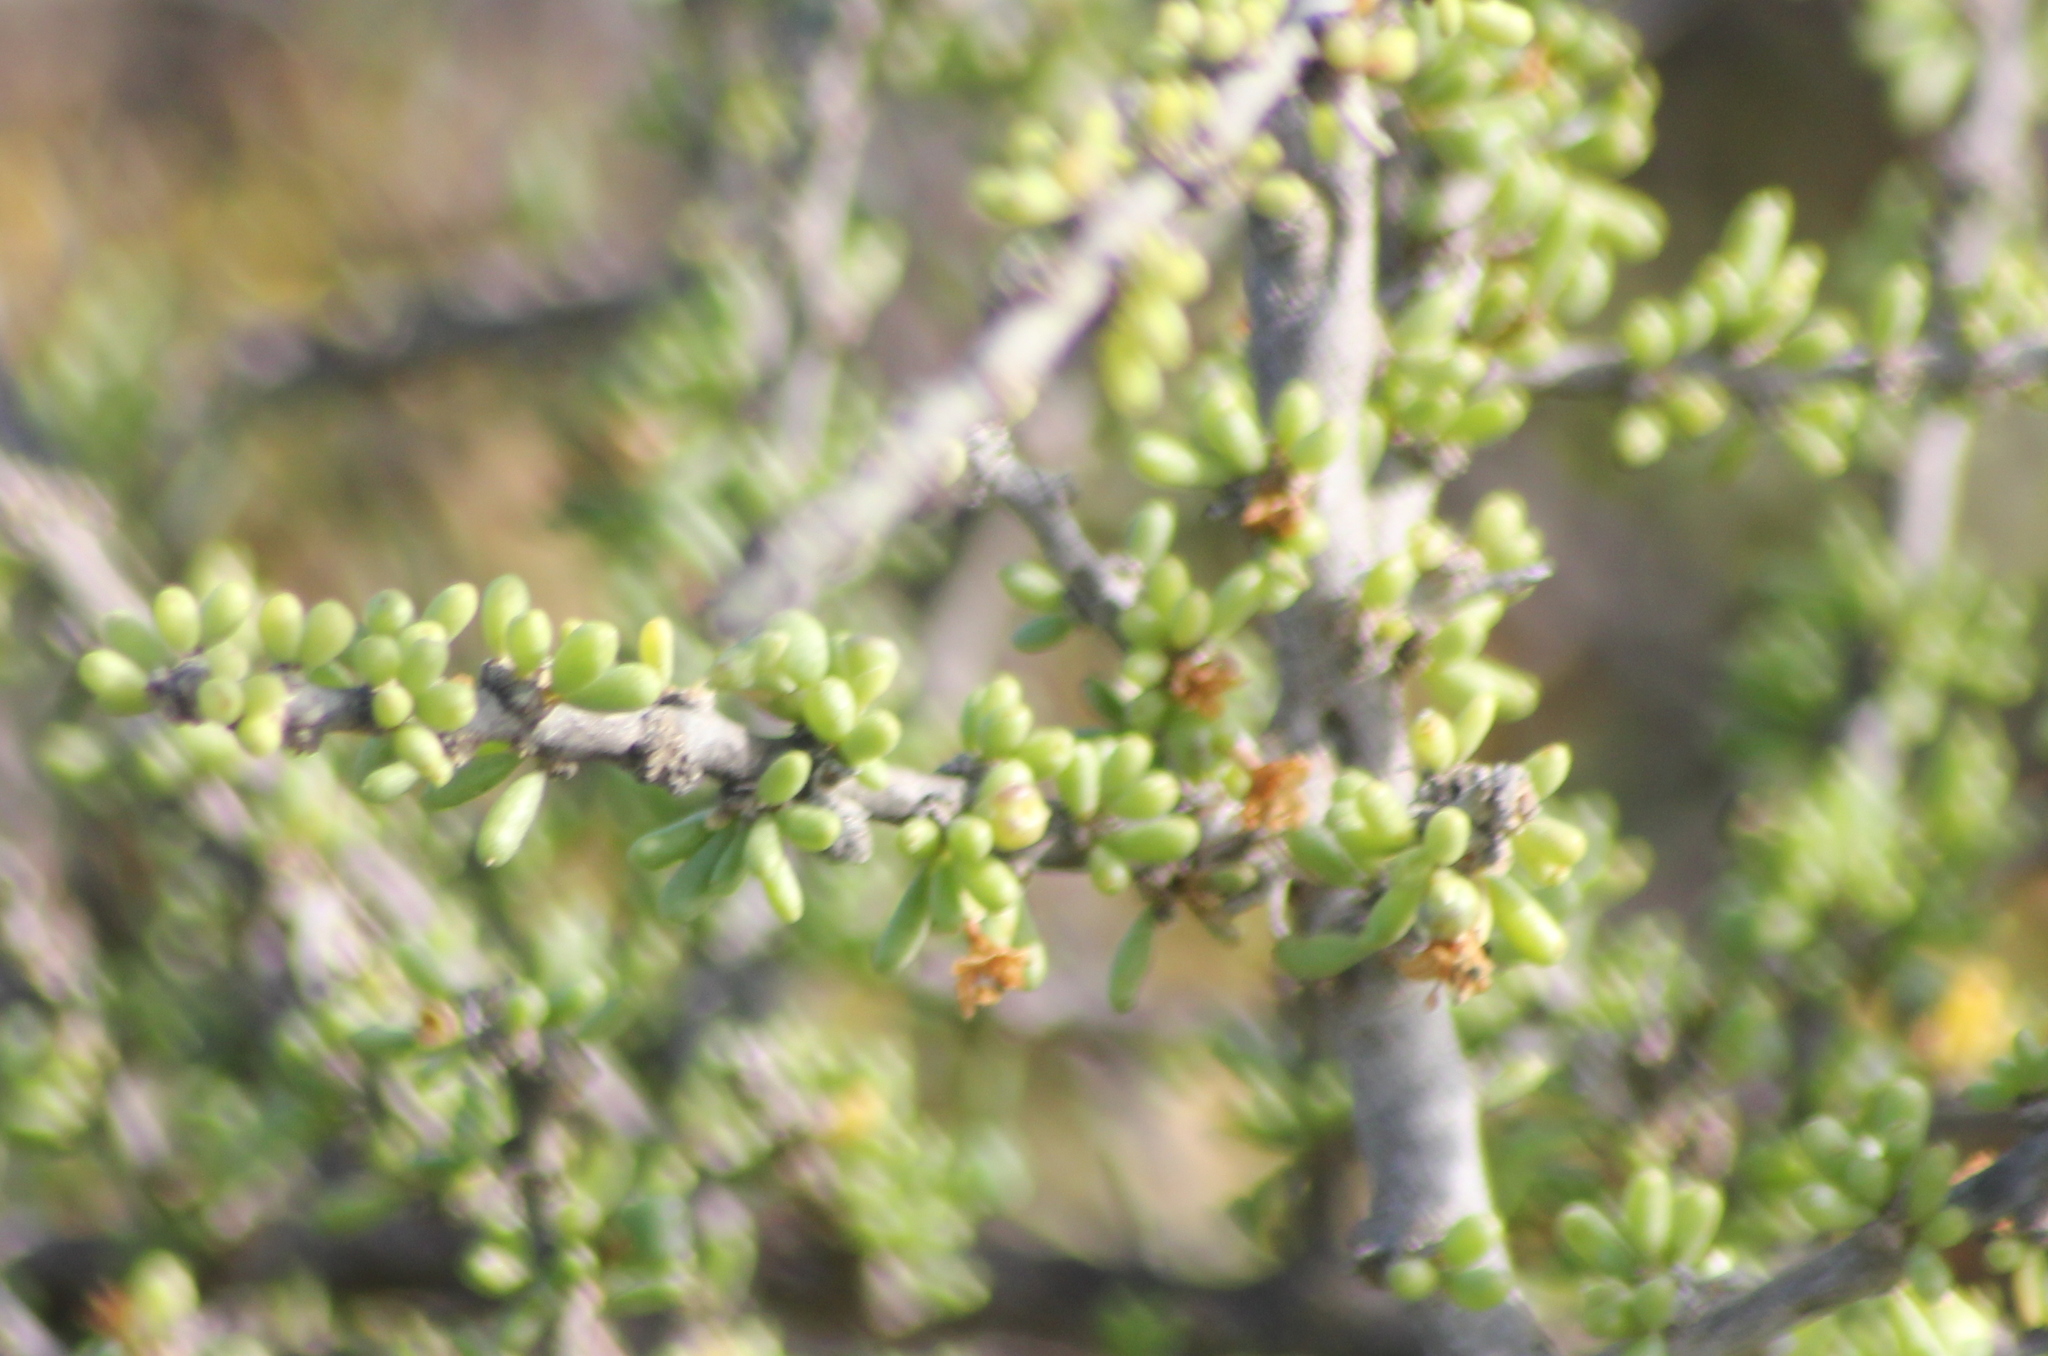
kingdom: Plantae
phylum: Tracheophyta
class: Magnoliopsida
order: Solanales
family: Solanaceae
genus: Lycium
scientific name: Lycium californicum
